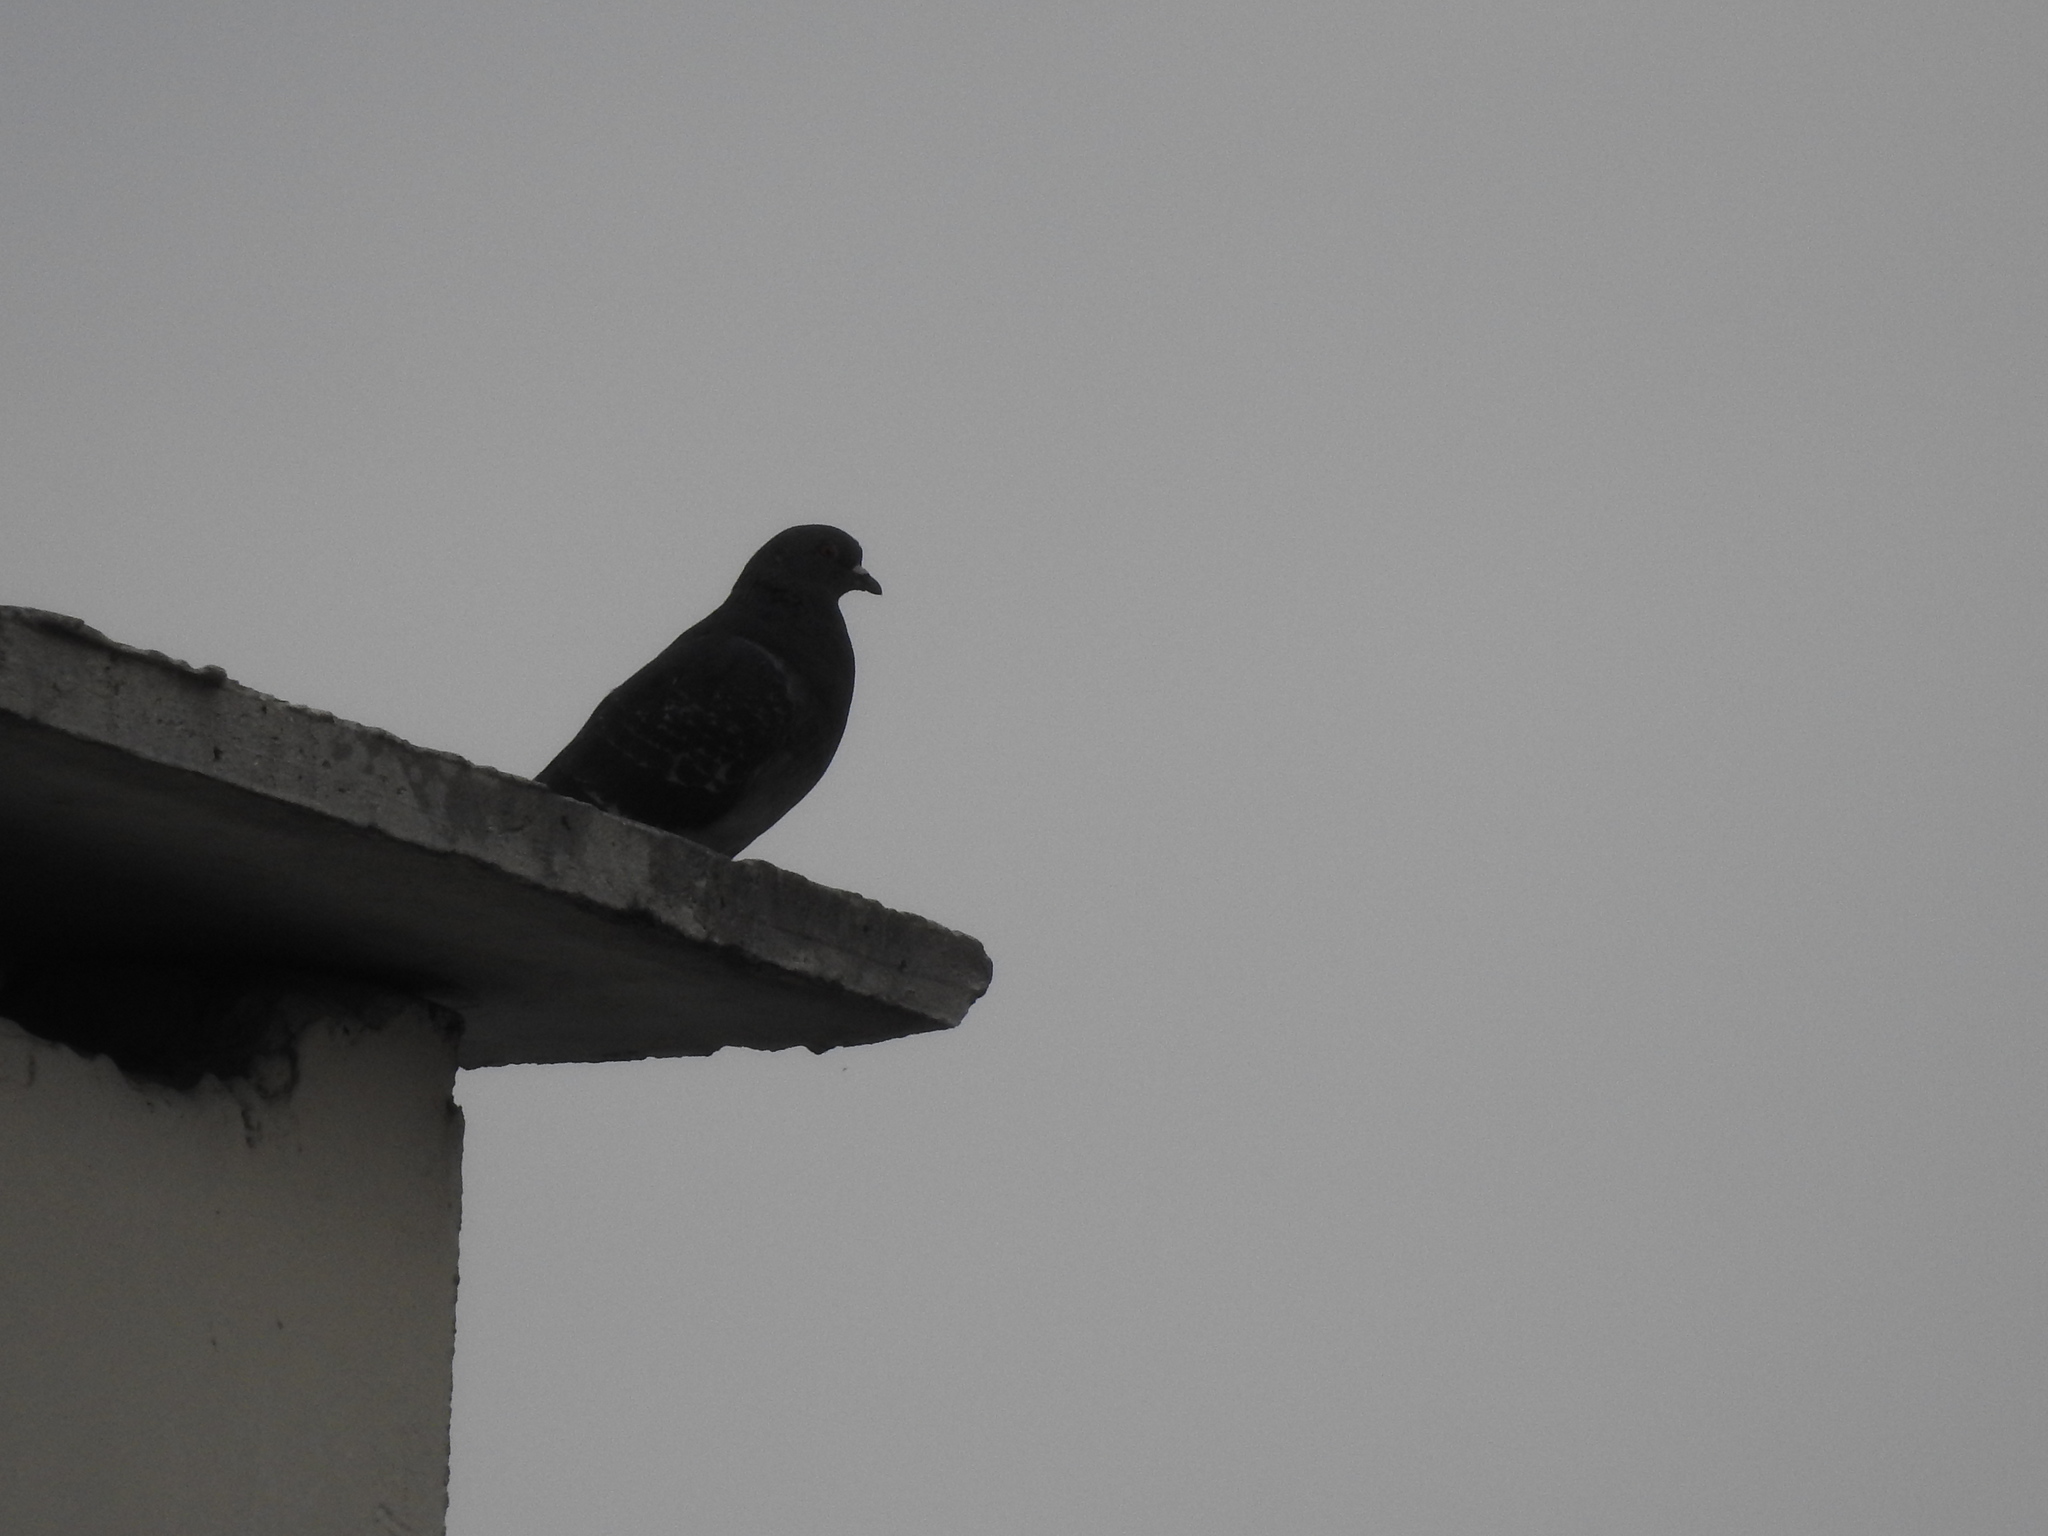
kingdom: Animalia
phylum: Chordata
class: Aves
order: Columbiformes
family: Columbidae
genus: Columba
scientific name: Columba livia
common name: Rock pigeon
